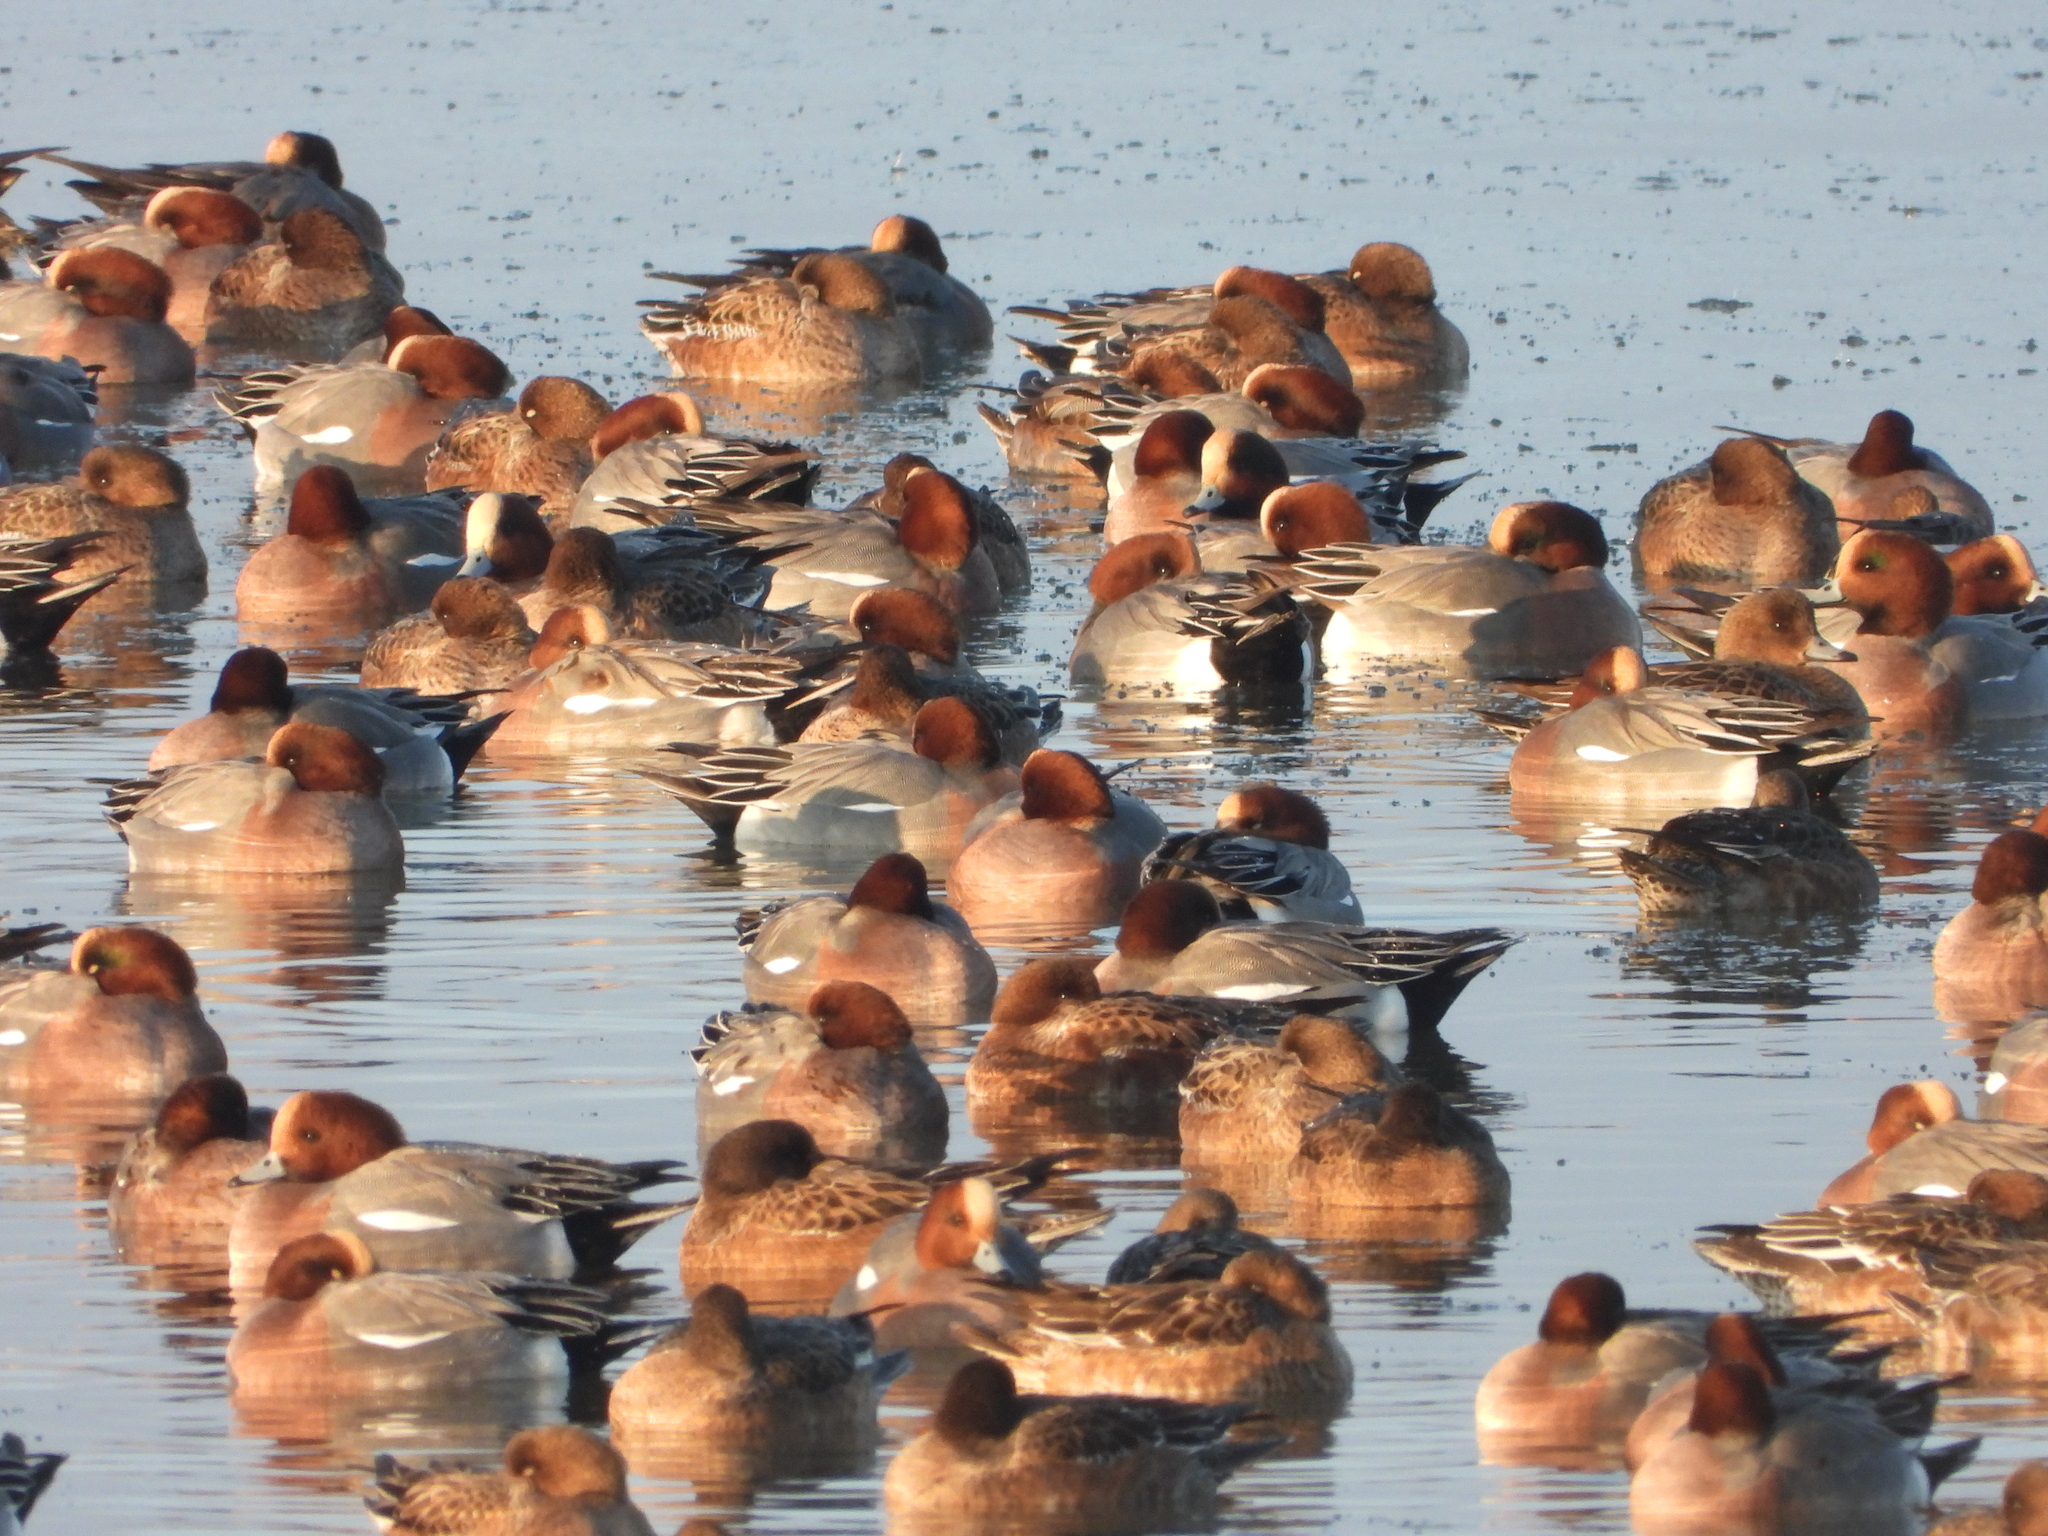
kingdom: Animalia
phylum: Chordata
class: Aves
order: Anseriformes
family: Anatidae
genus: Mareca
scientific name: Mareca penelope
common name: Eurasian wigeon
